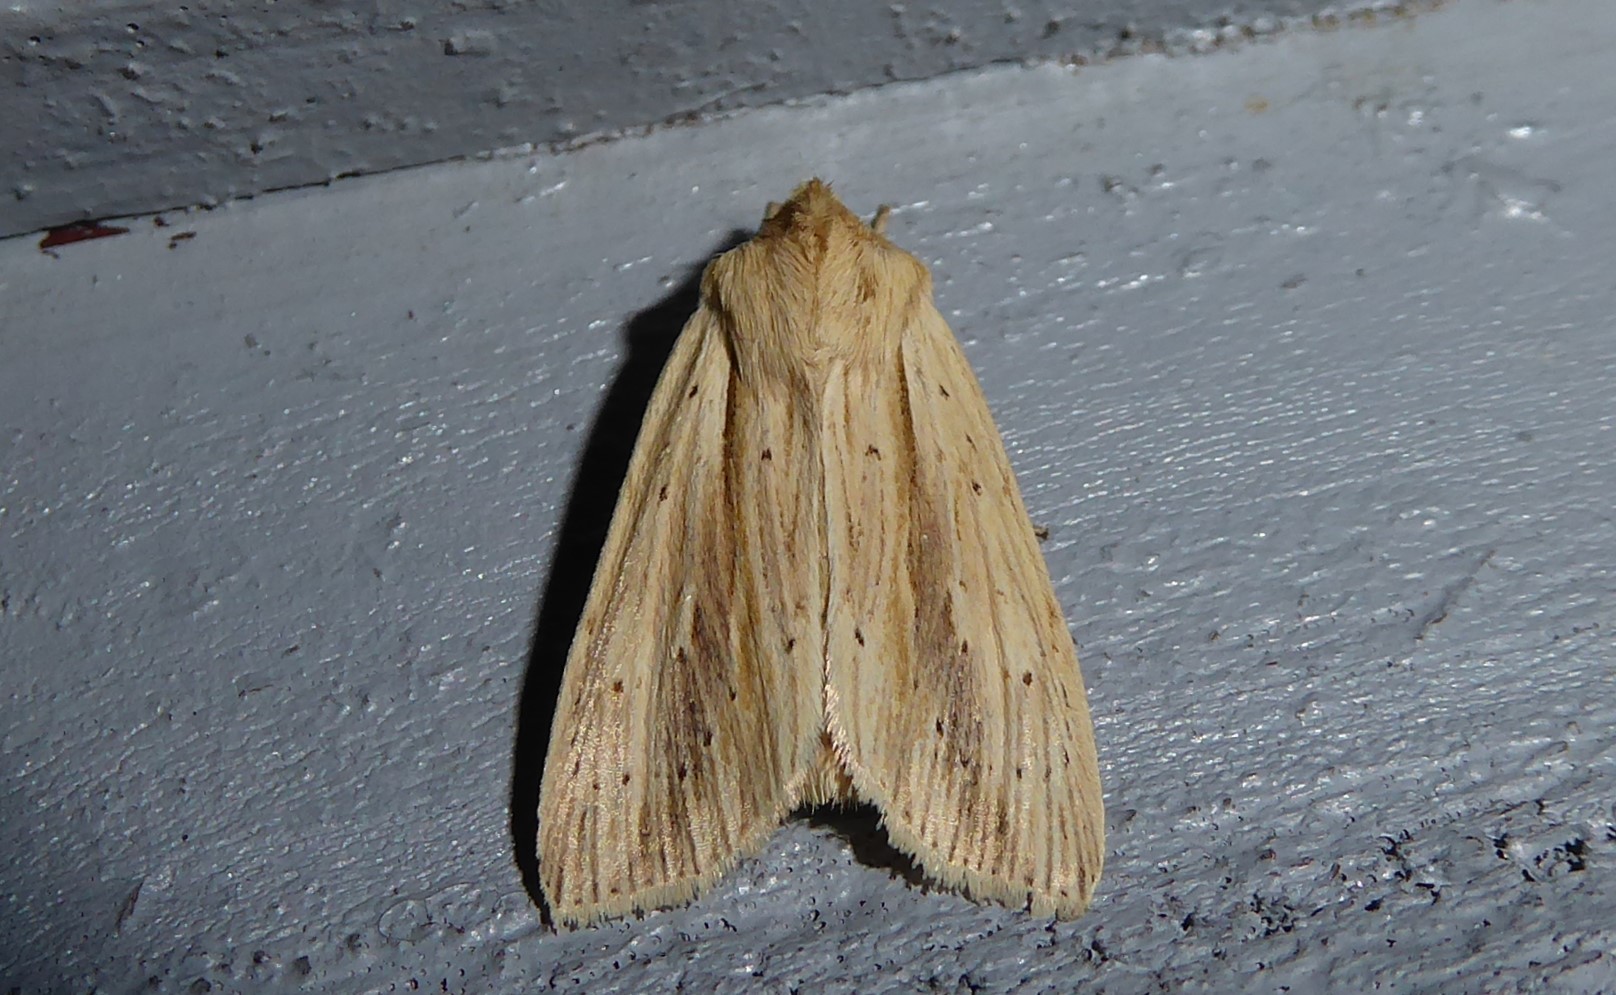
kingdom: Animalia
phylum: Arthropoda
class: Insecta
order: Lepidoptera
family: Noctuidae
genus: Ichneutica
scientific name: Ichneutica semivittata
